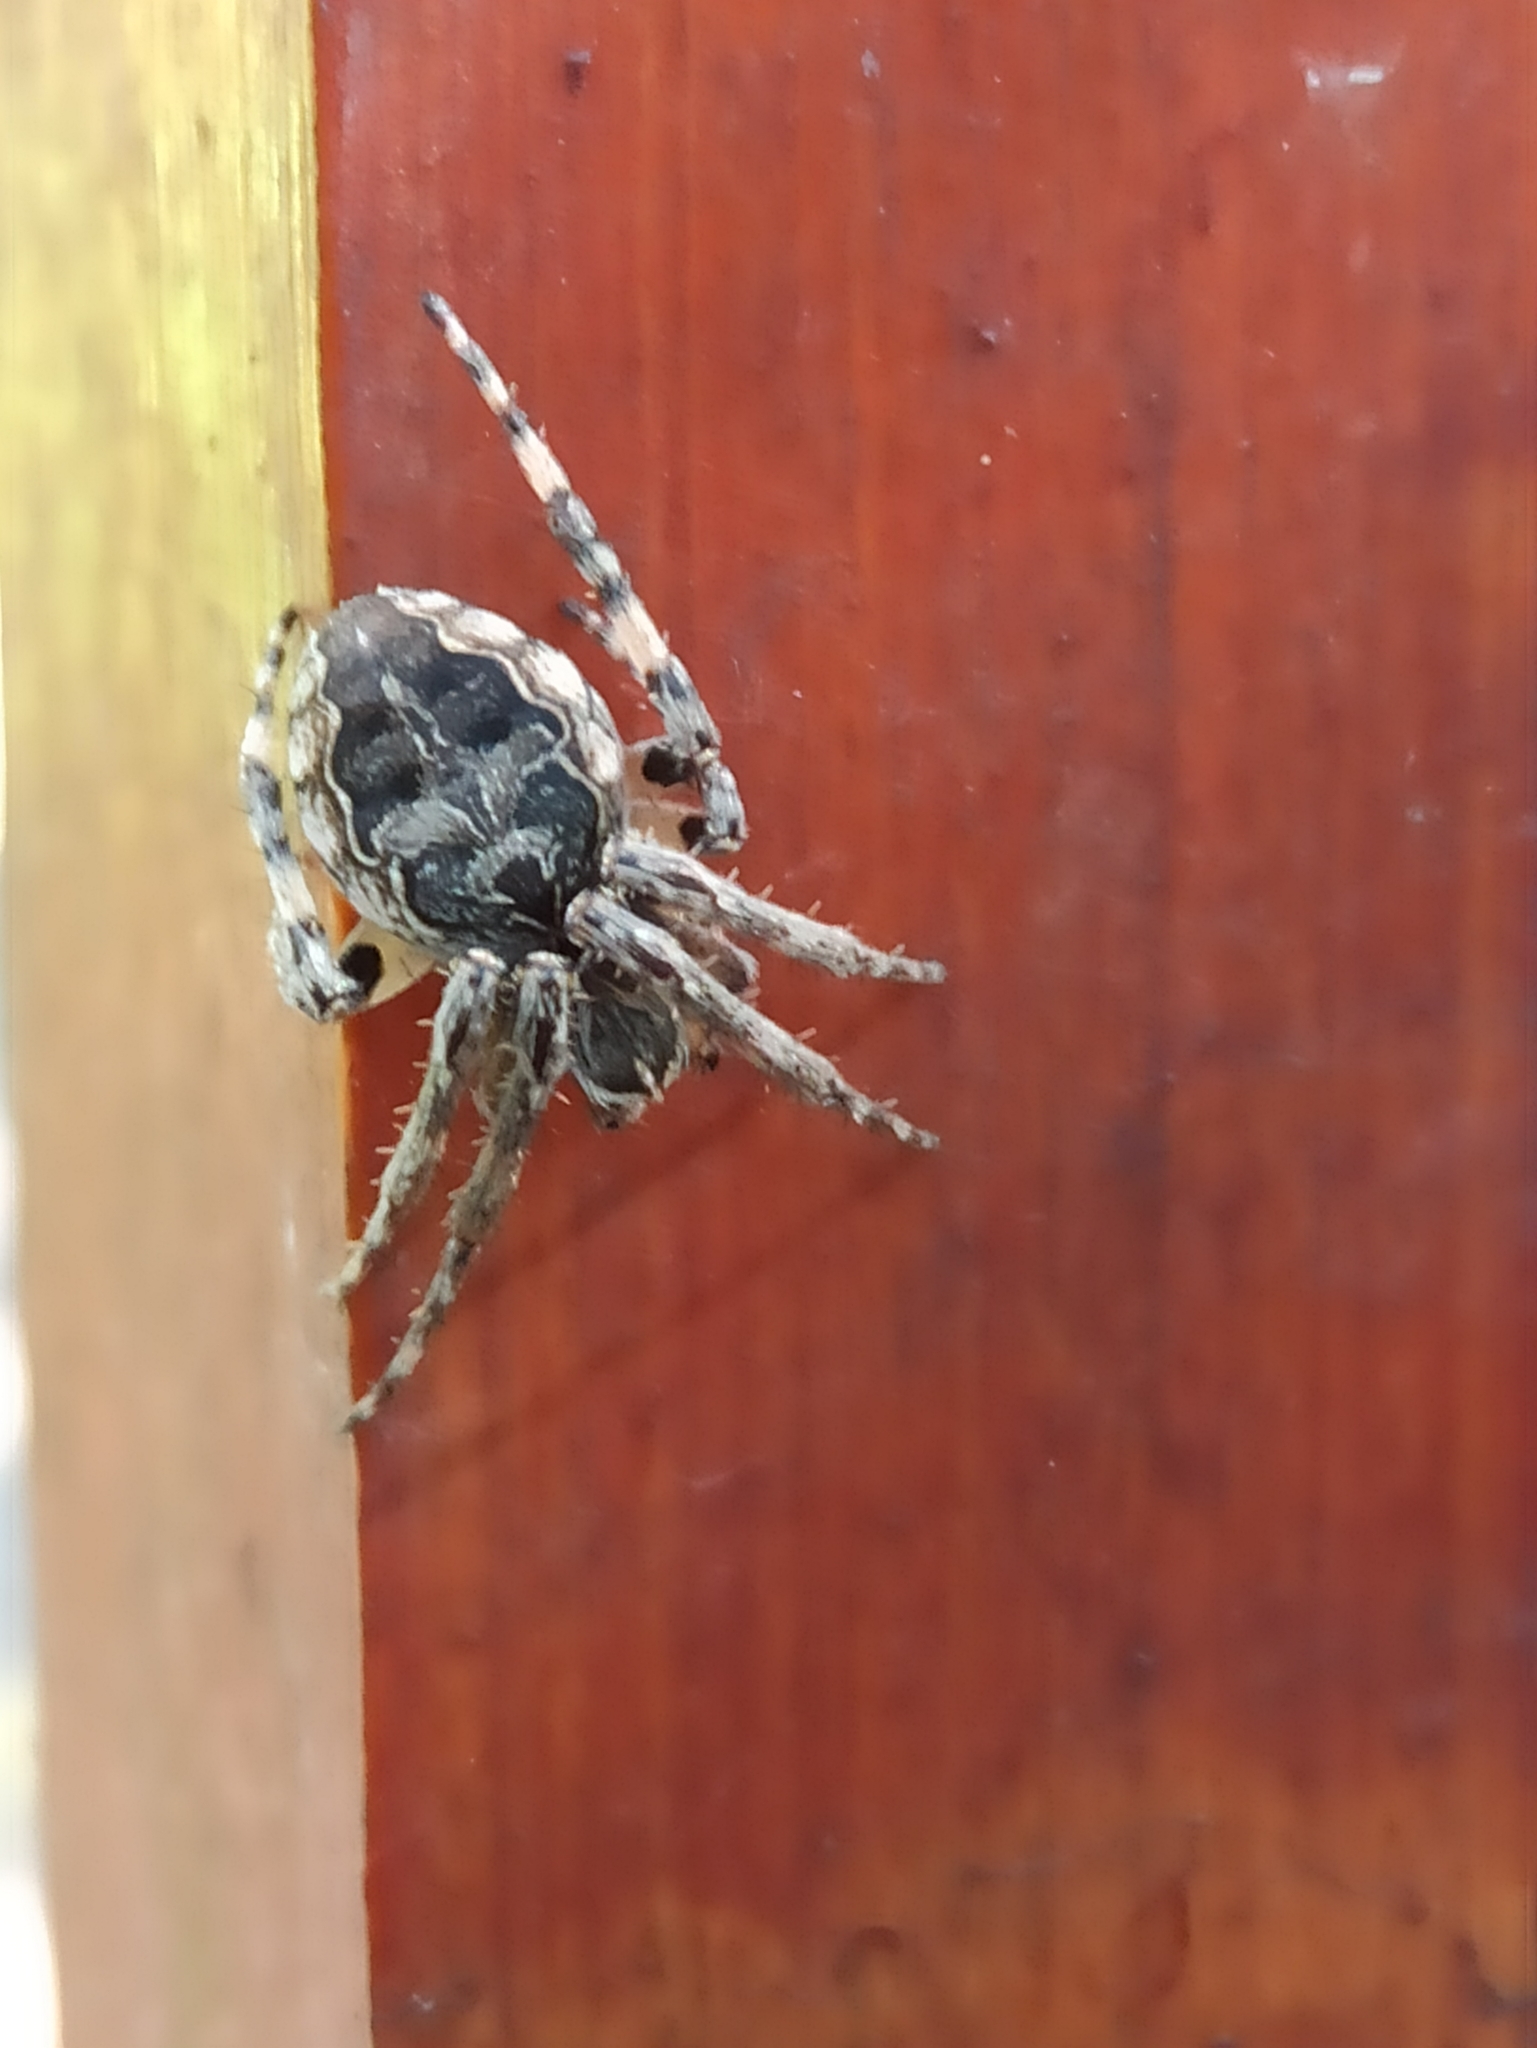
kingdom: Animalia
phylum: Arthropoda
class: Arachnida
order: Araneae
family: Araneidae
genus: Larinioides
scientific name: Larinioides sclopetarius
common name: Bridge orbweaver
